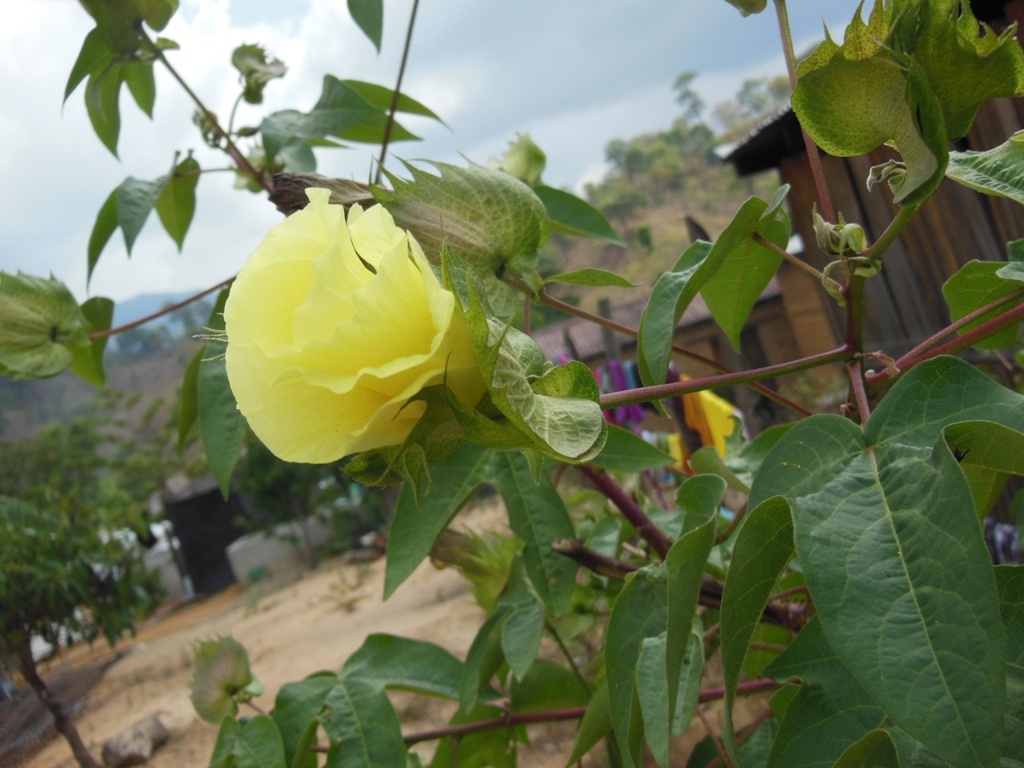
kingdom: Plantae
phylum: Tracheophyta
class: Magnoliopsida
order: Malvales
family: Malvaceae
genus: Gossypium
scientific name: Gossypium hirsutum
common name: Cotton
